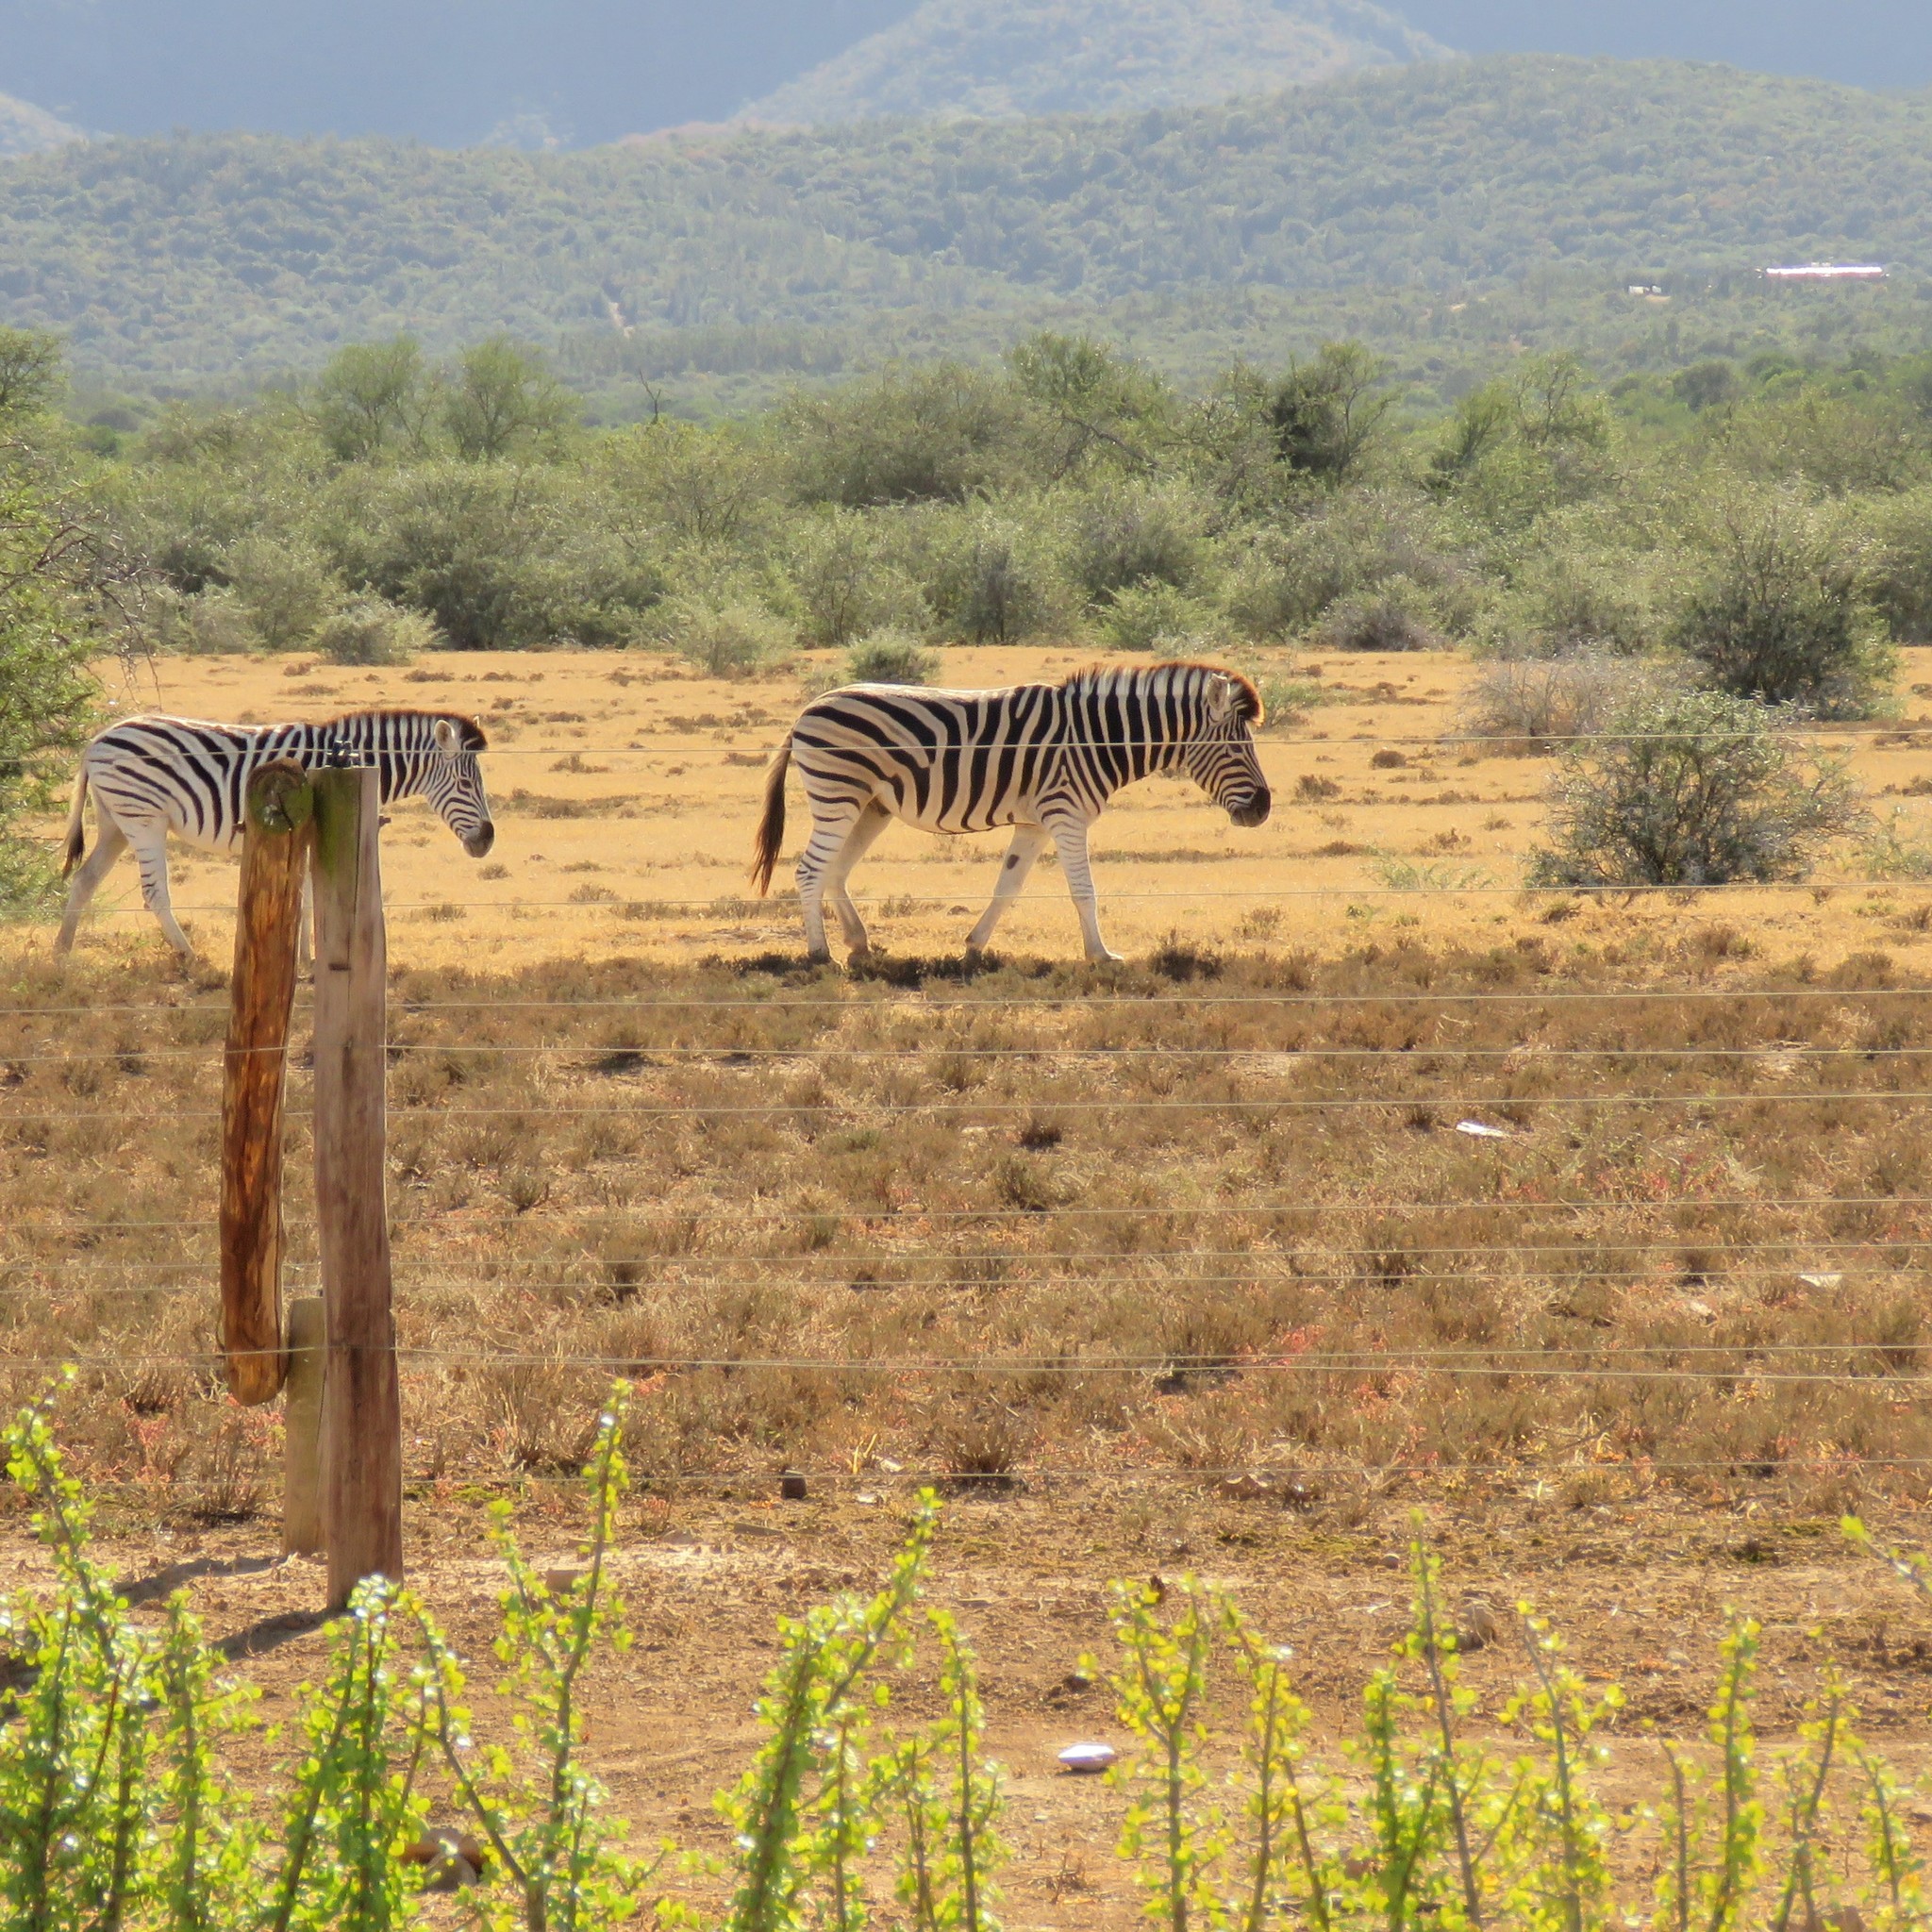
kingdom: Animalia
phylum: Chordata
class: Mammalia
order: Perissodactyla
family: Equidae
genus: Equus
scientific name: Equus quagga
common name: Plains zebra
